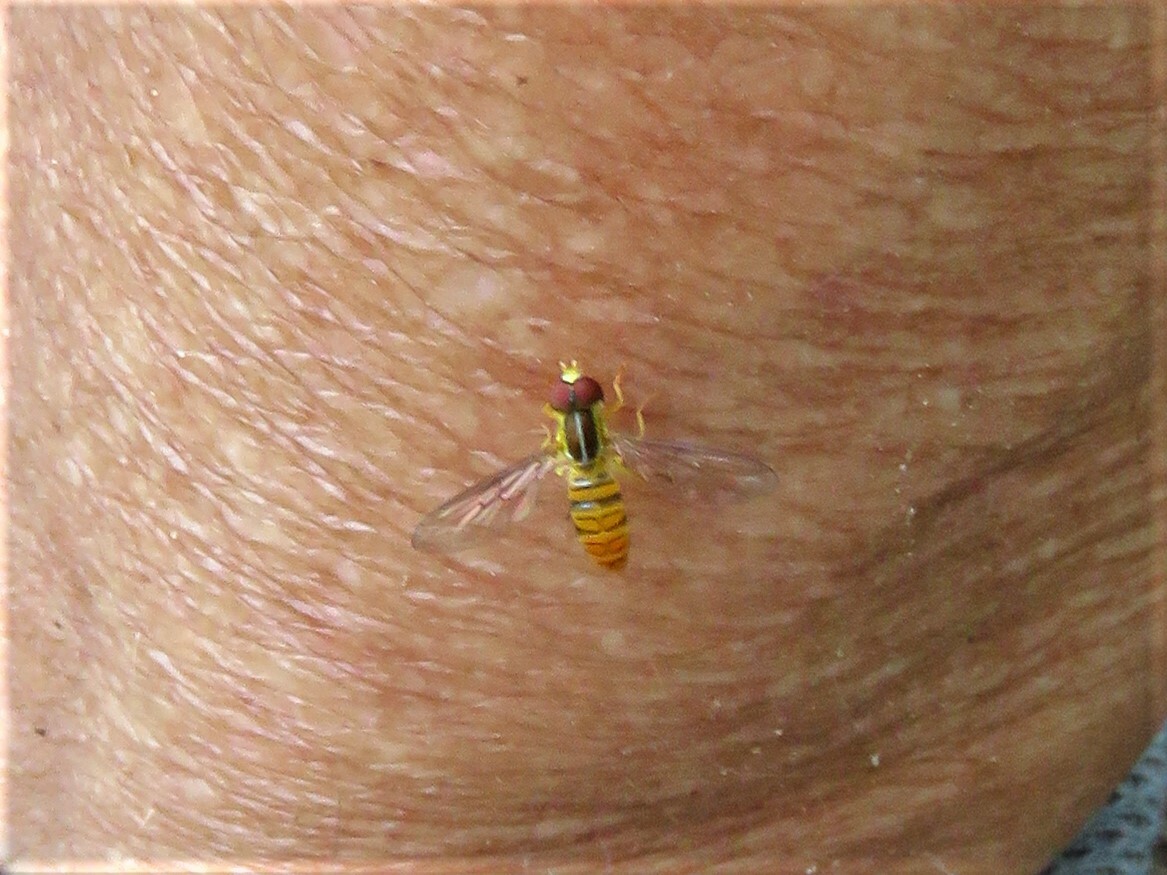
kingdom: Animalia
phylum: Arthropoda
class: Insecta
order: Diptera
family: Syrphidae
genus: Toxomerus
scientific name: Toxomerus politus
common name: Maize calligrapher
